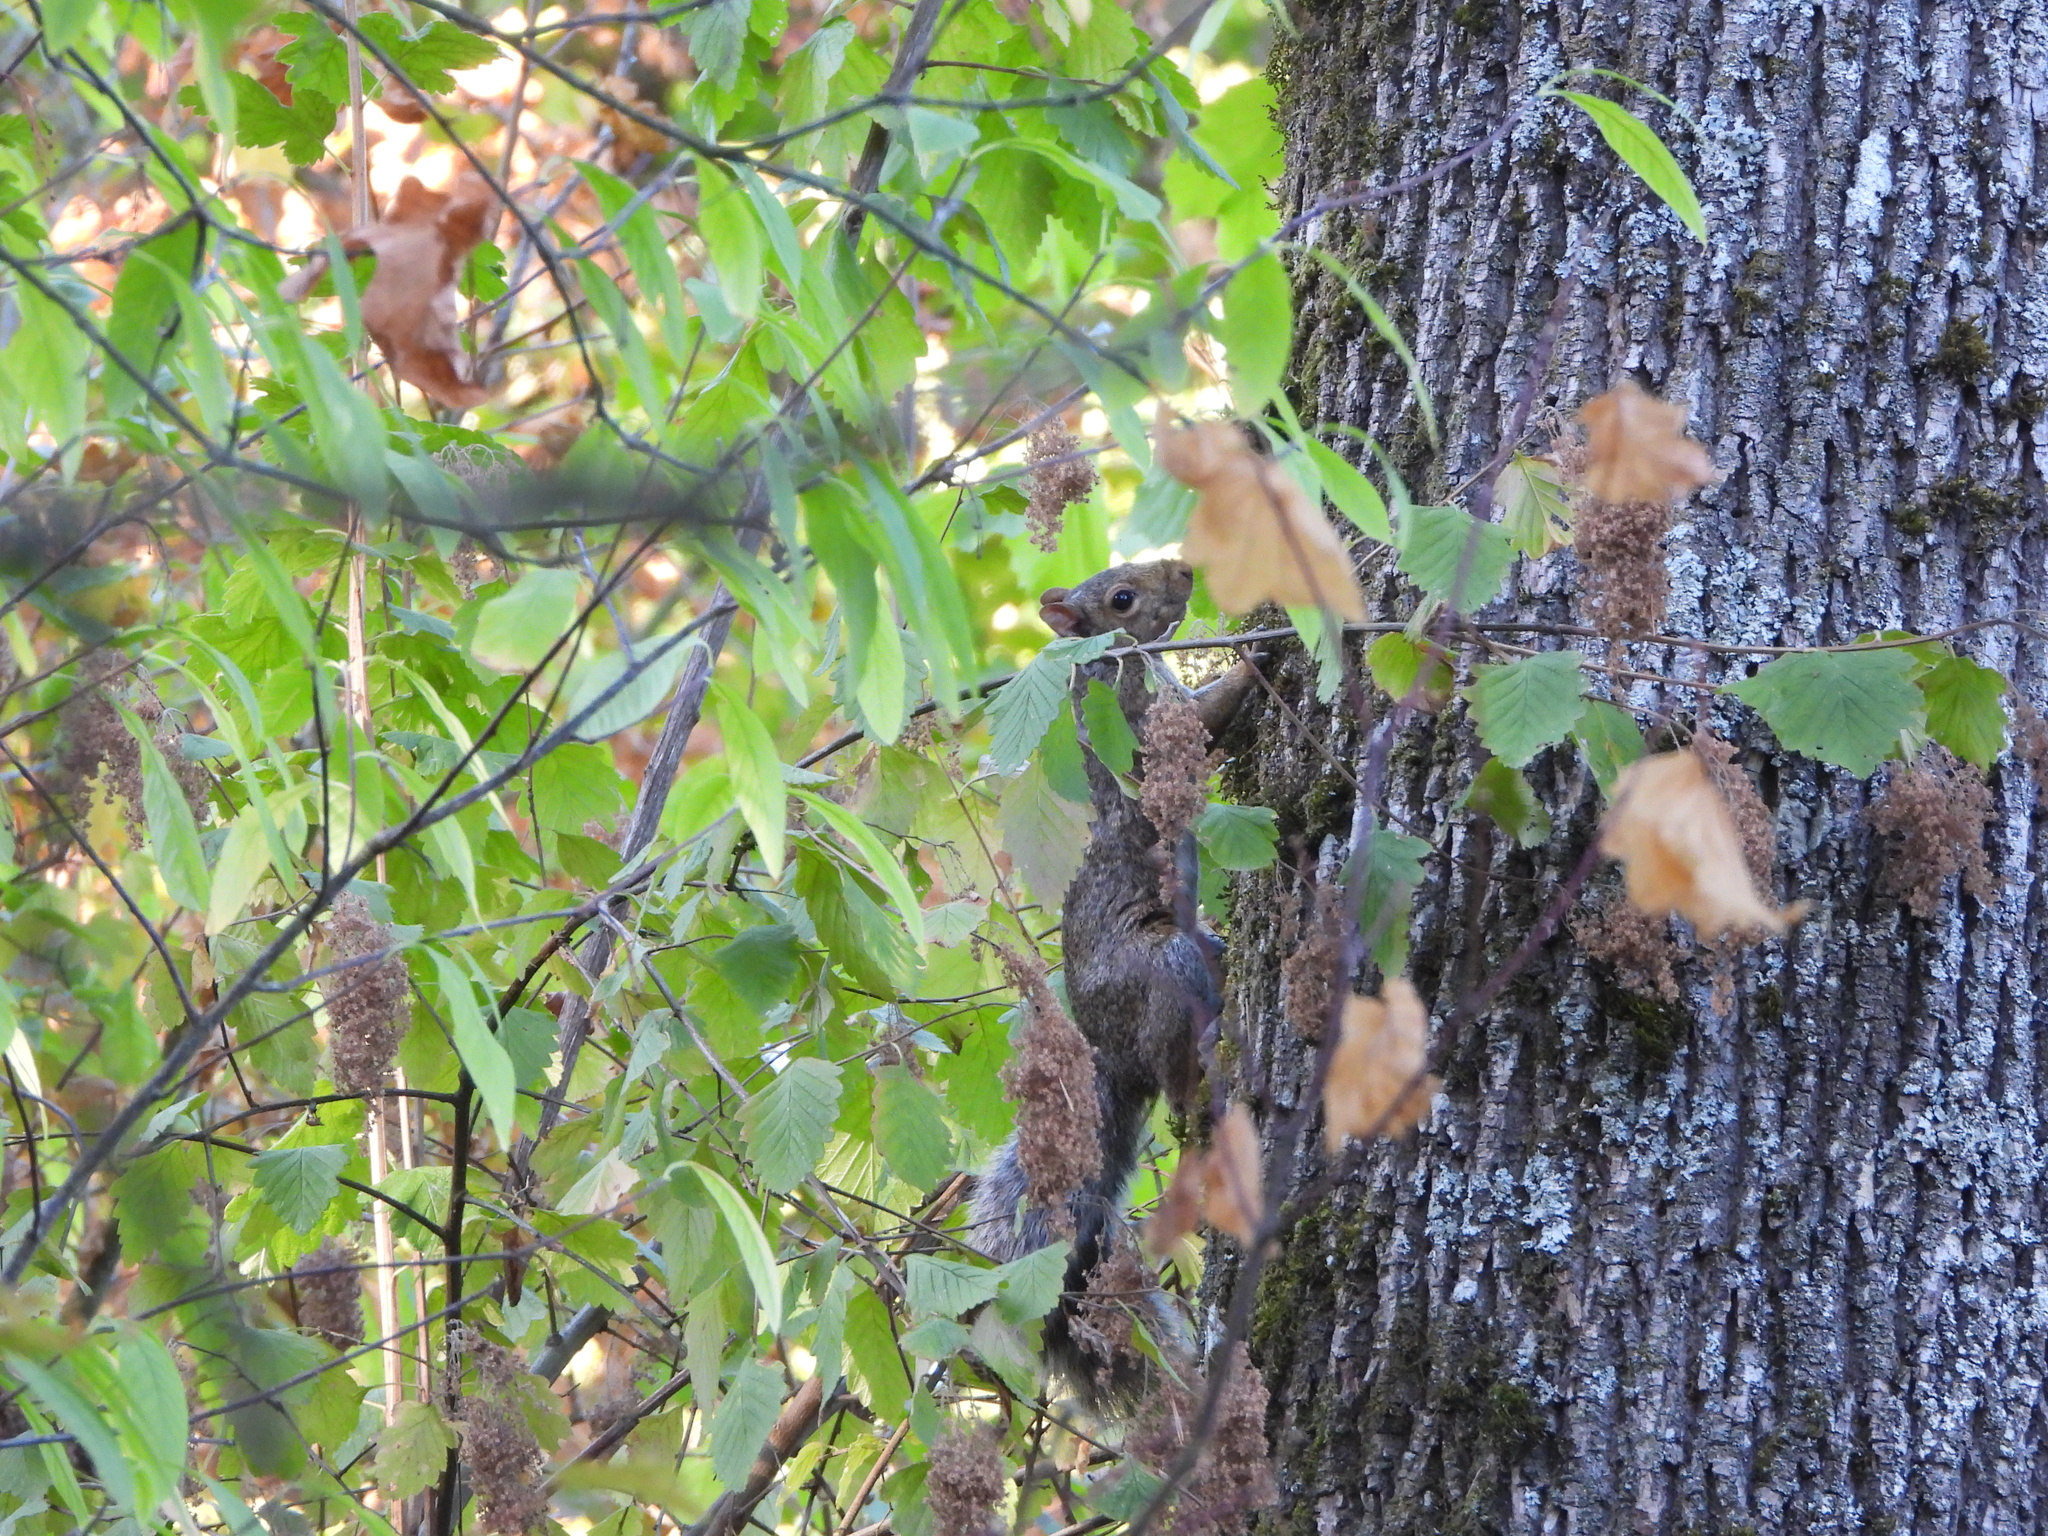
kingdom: Animalia
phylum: Chordata
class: Mammalia
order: Rodentia
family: Sciuridae
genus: Sciurus
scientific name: Sciurus carolinensis
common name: Eastern gray squirrel
